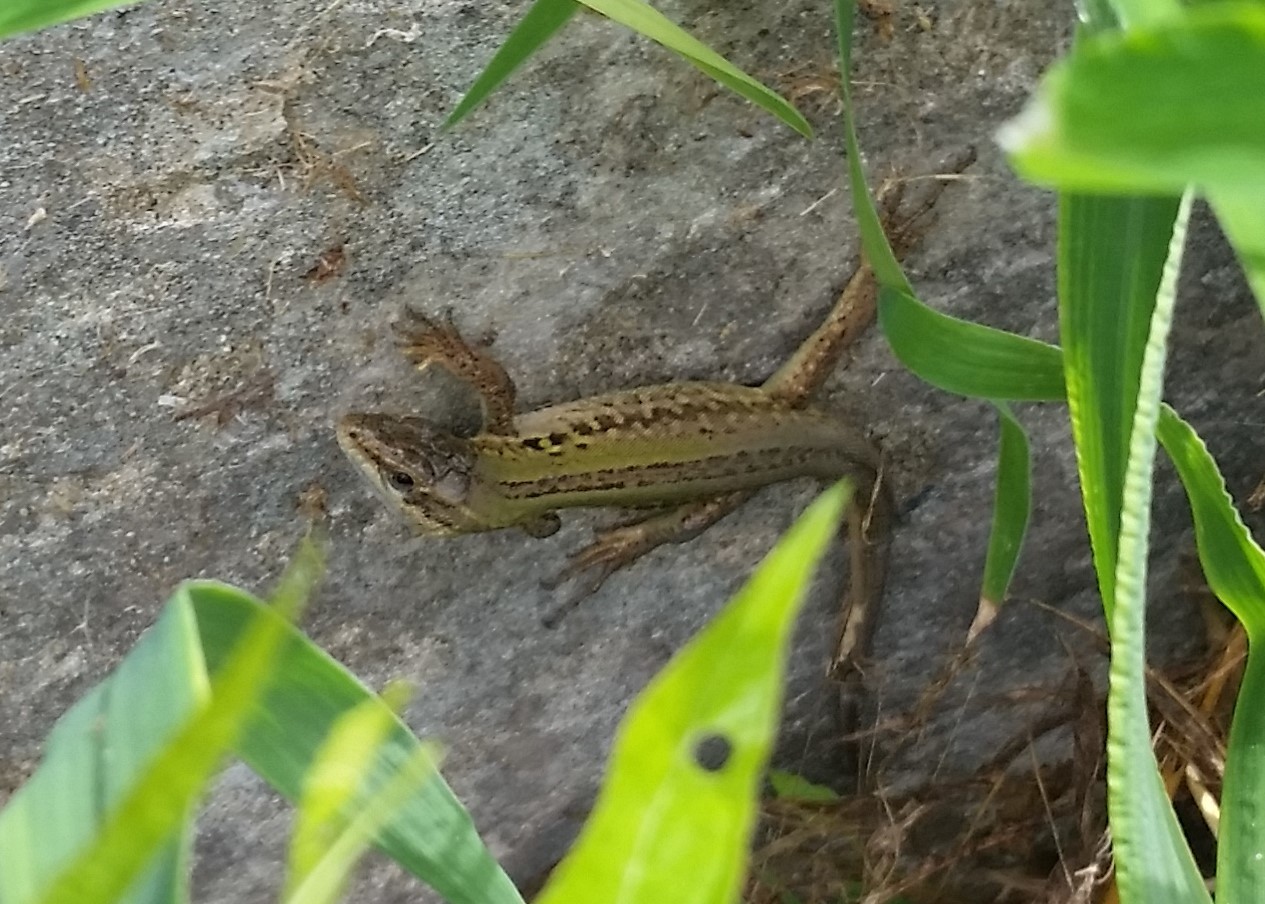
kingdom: Animalia
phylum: Chordata
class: Squamata
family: Lacertidae
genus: Podarcis
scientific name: Podarcis siculus
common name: Italian wall lizard
